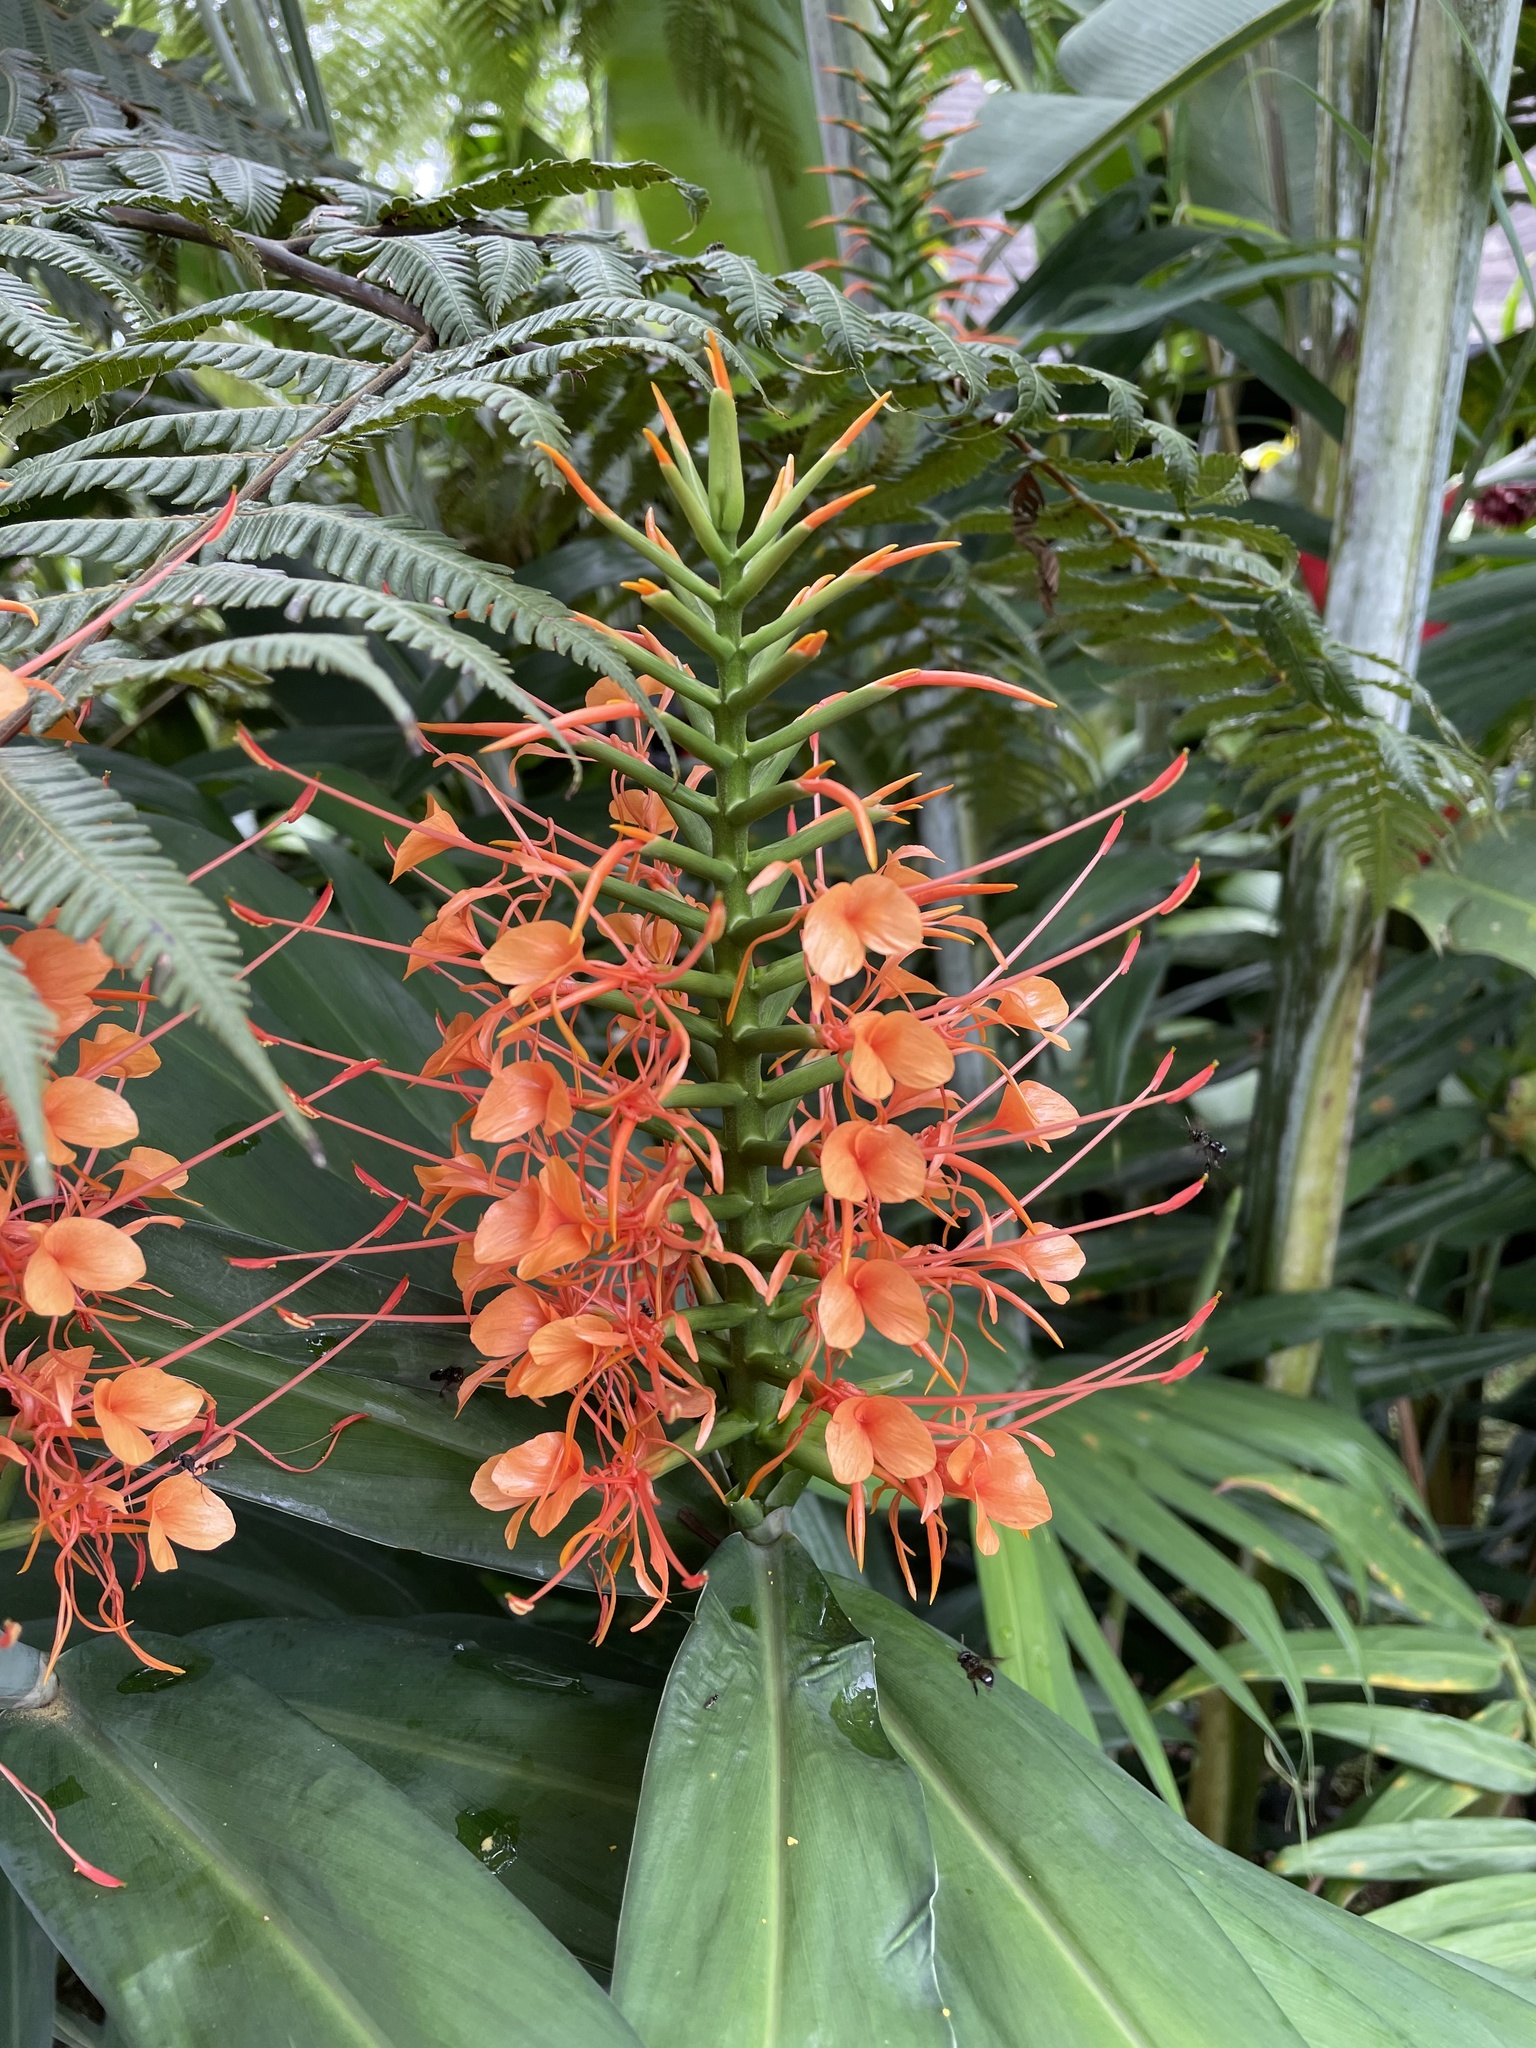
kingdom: Plantae
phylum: Tracheophyta
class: Liliopsida
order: Zingiberales
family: Zingiberaceae
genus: Hedychium
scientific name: Hedychium coccineum
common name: Red ginger-lily
